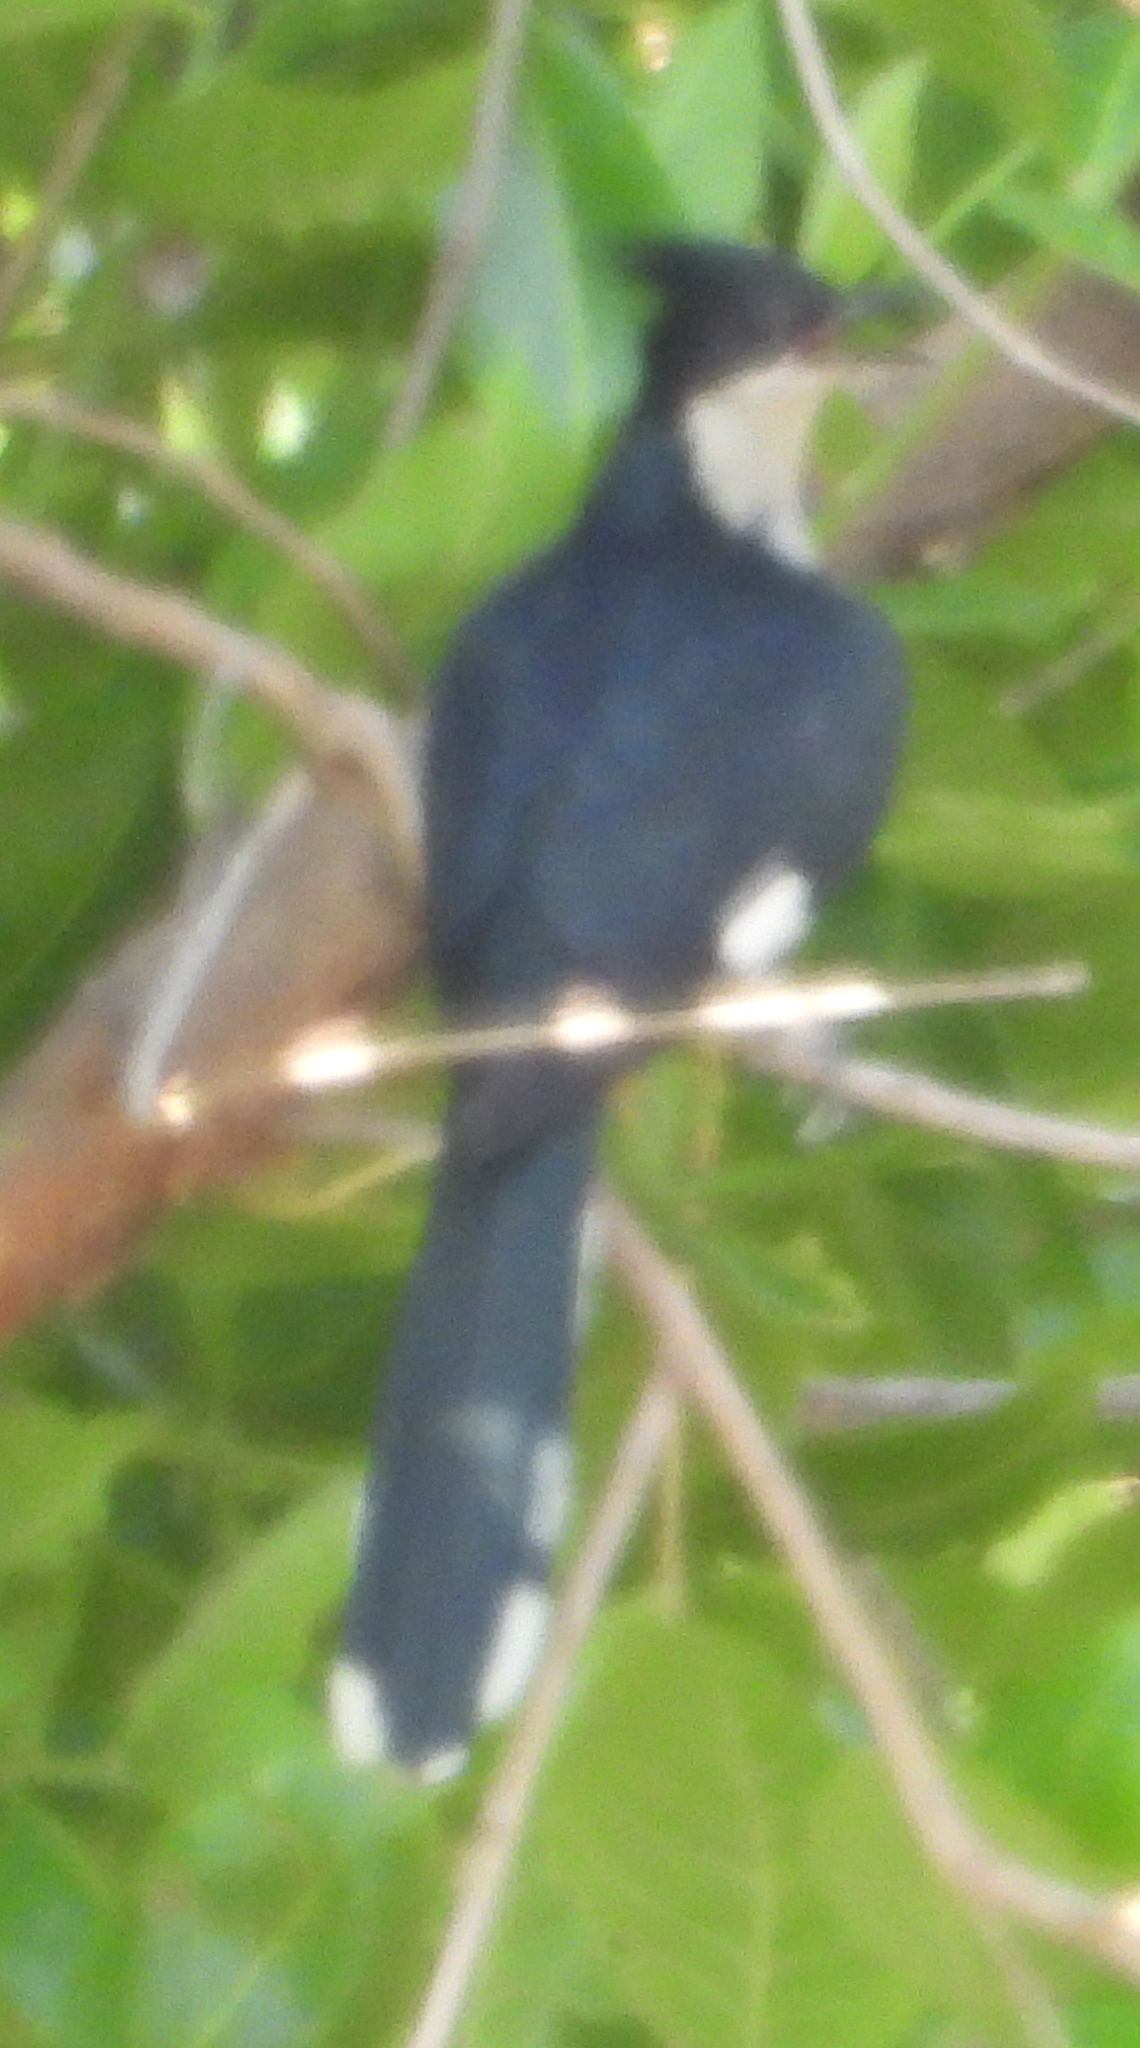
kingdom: Animalia
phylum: Chordata
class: Aves
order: Cuculiformes
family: Cuculidae
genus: Clamator
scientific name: Clamator jacobinus
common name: Jacobin cuckoo
